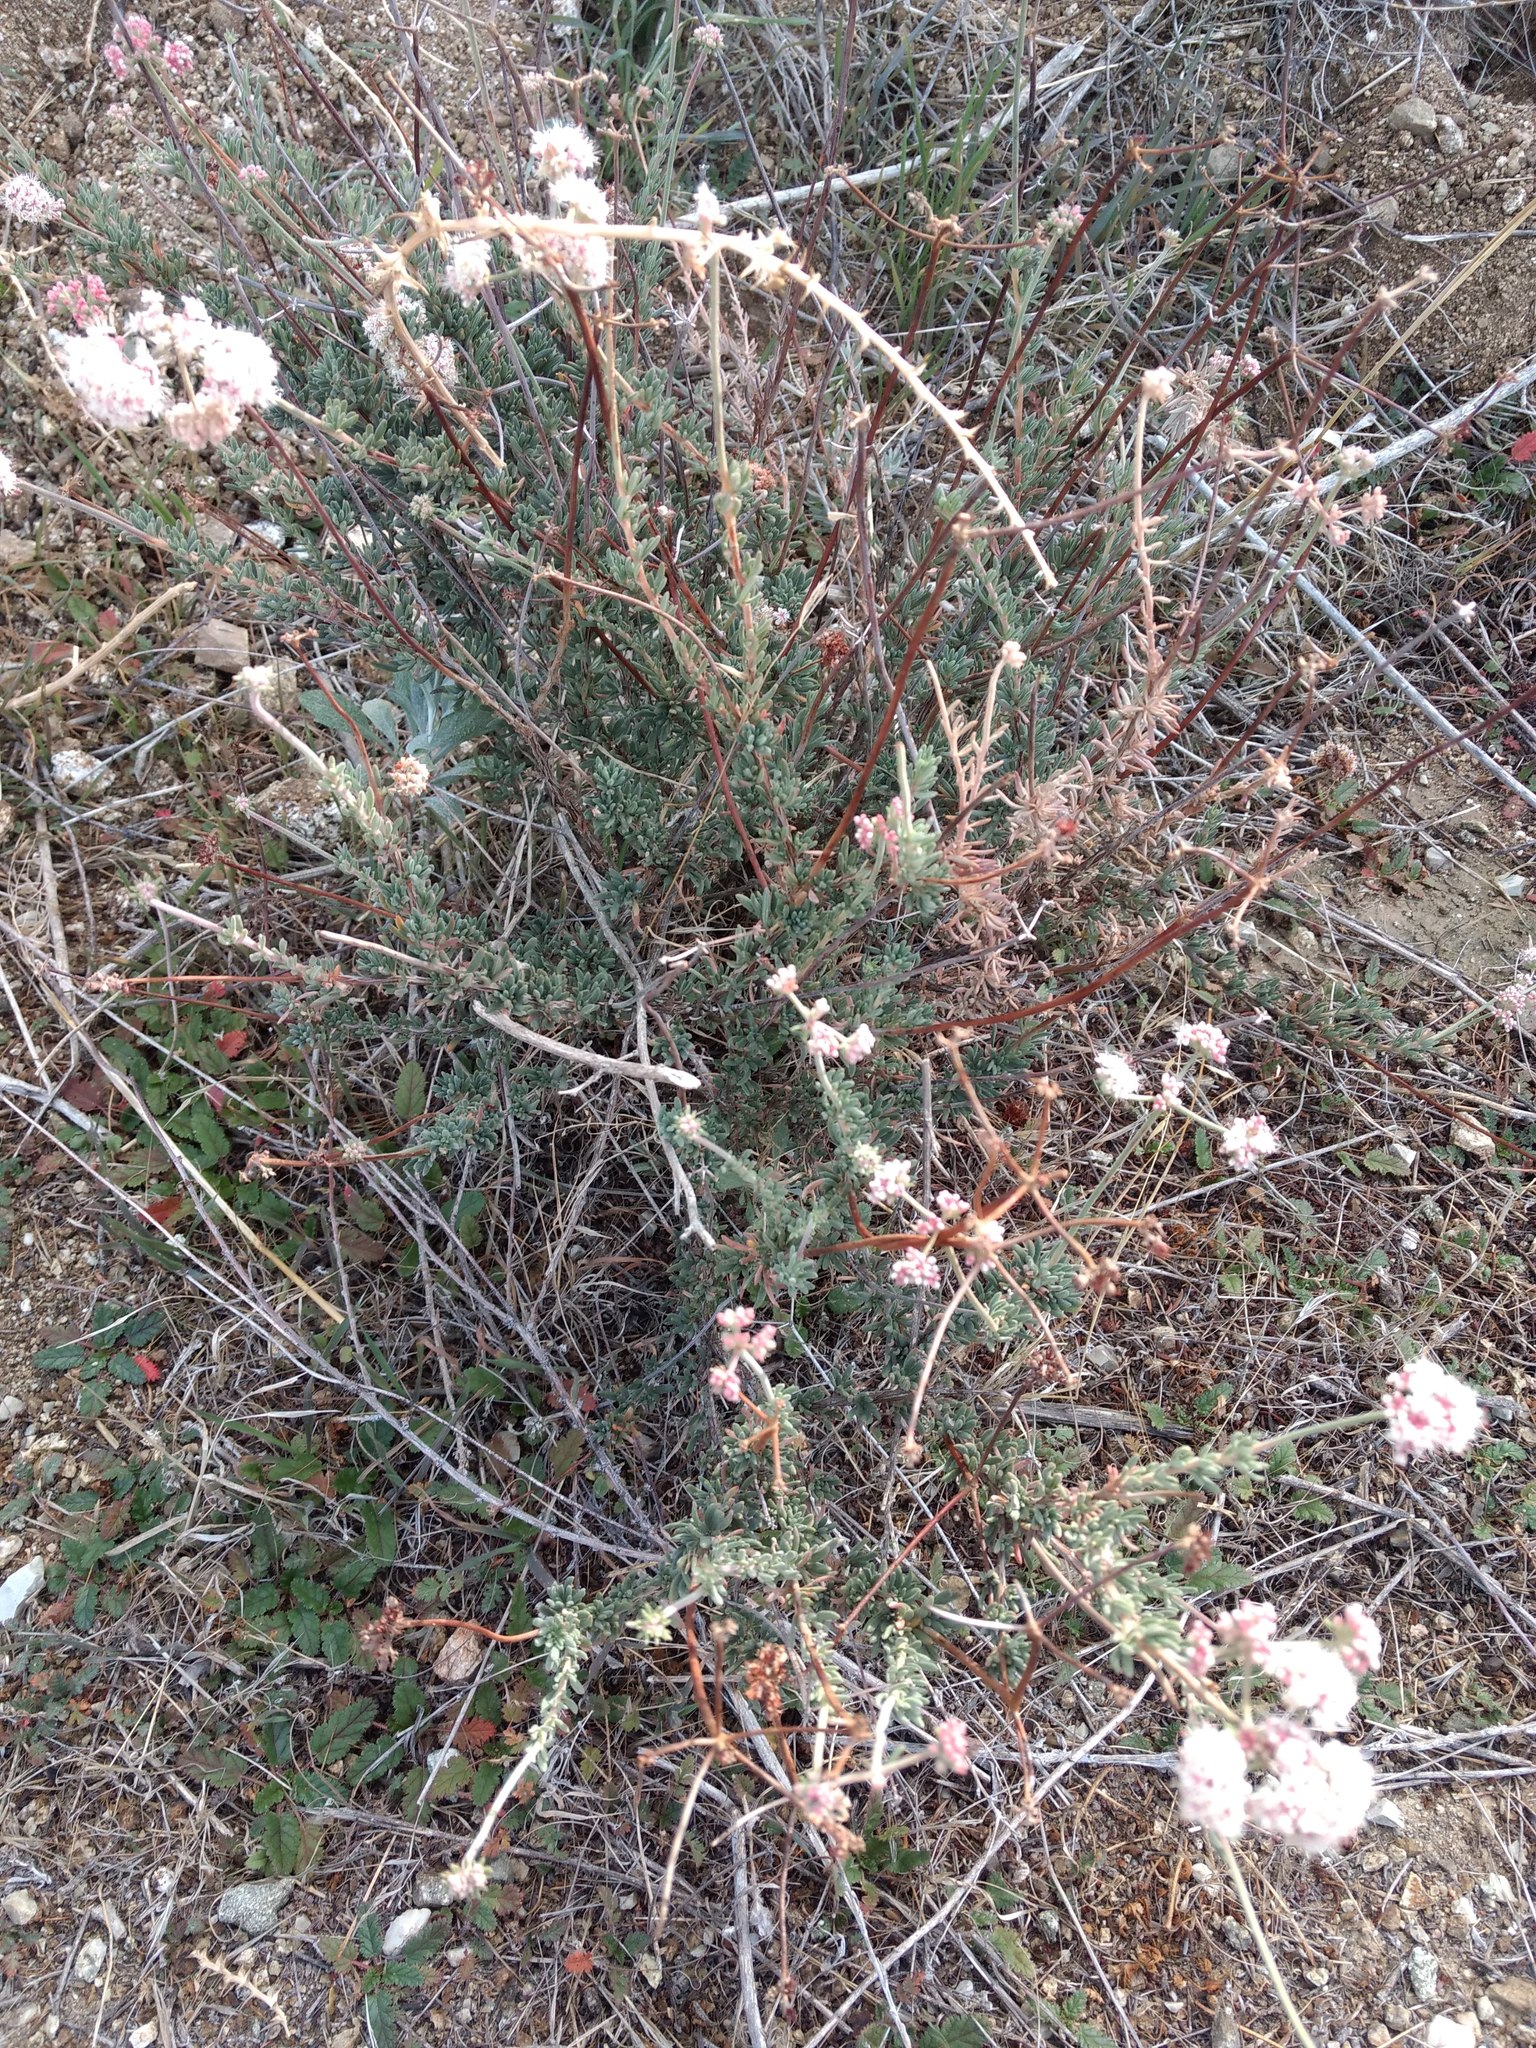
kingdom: Plantae
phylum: Tracheophyta
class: Magnoliopsida
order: Caryophyllales
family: Polygonaceae
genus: Eriogonum
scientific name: Eriogonum fasciculatum
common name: California wild buckwheat
